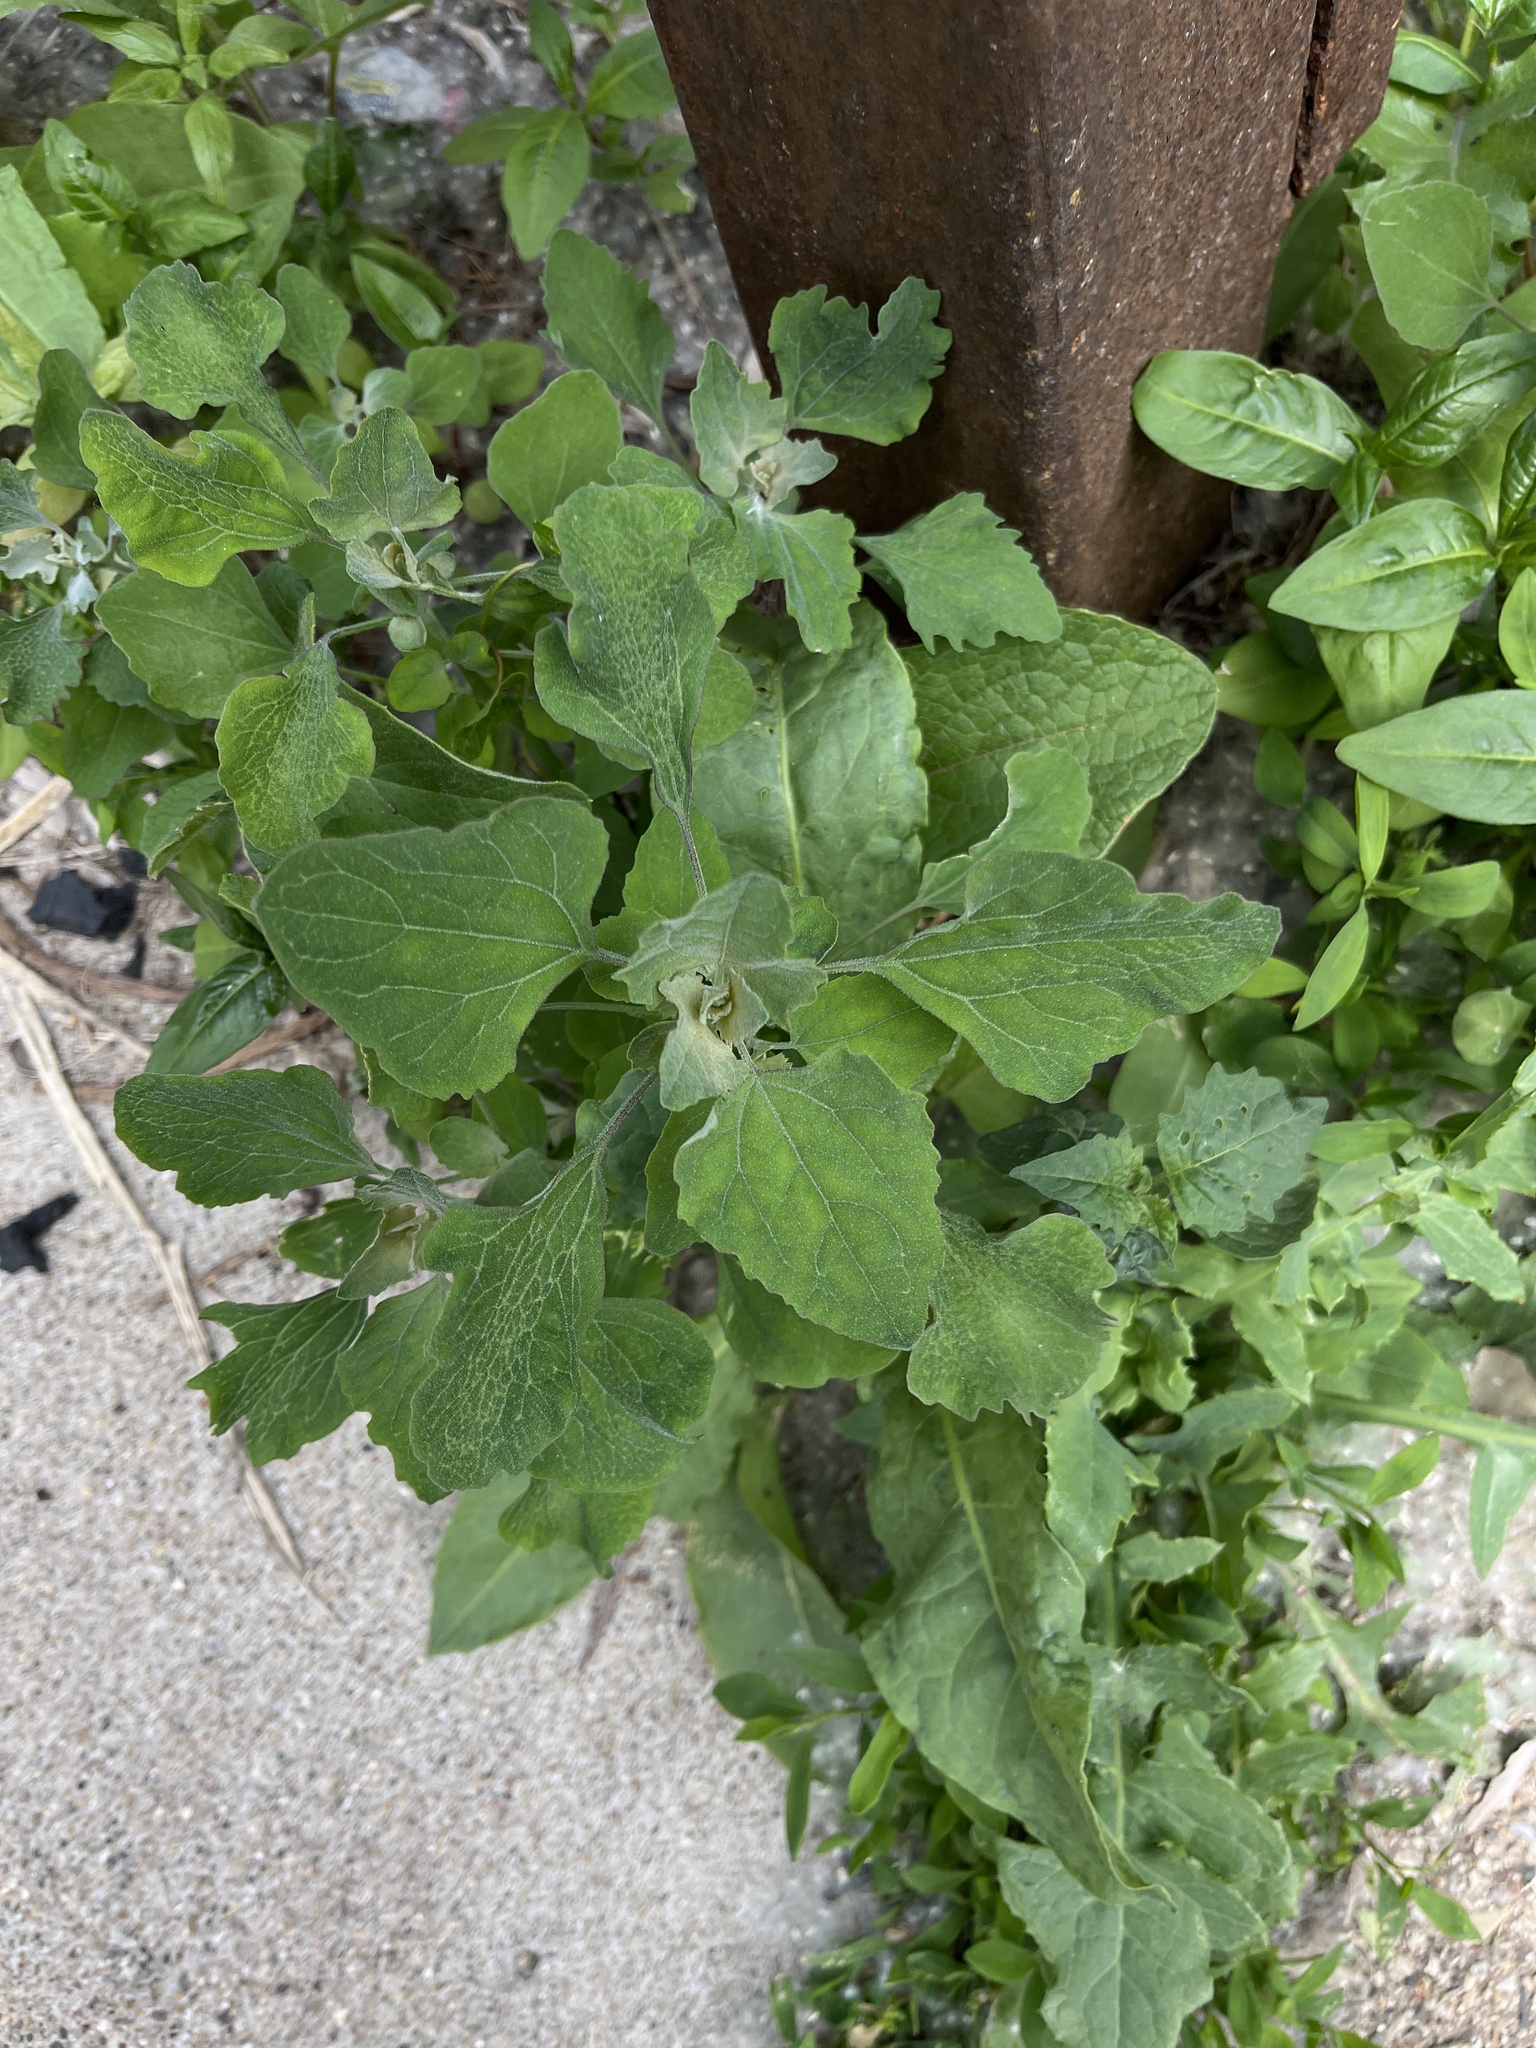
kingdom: Plantae
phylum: Tracheophyta
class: Magnoliopsida
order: Caryophyllales
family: Amaranthaceae
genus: Chenopodium
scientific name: Chenopodium album
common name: Fat-hen
